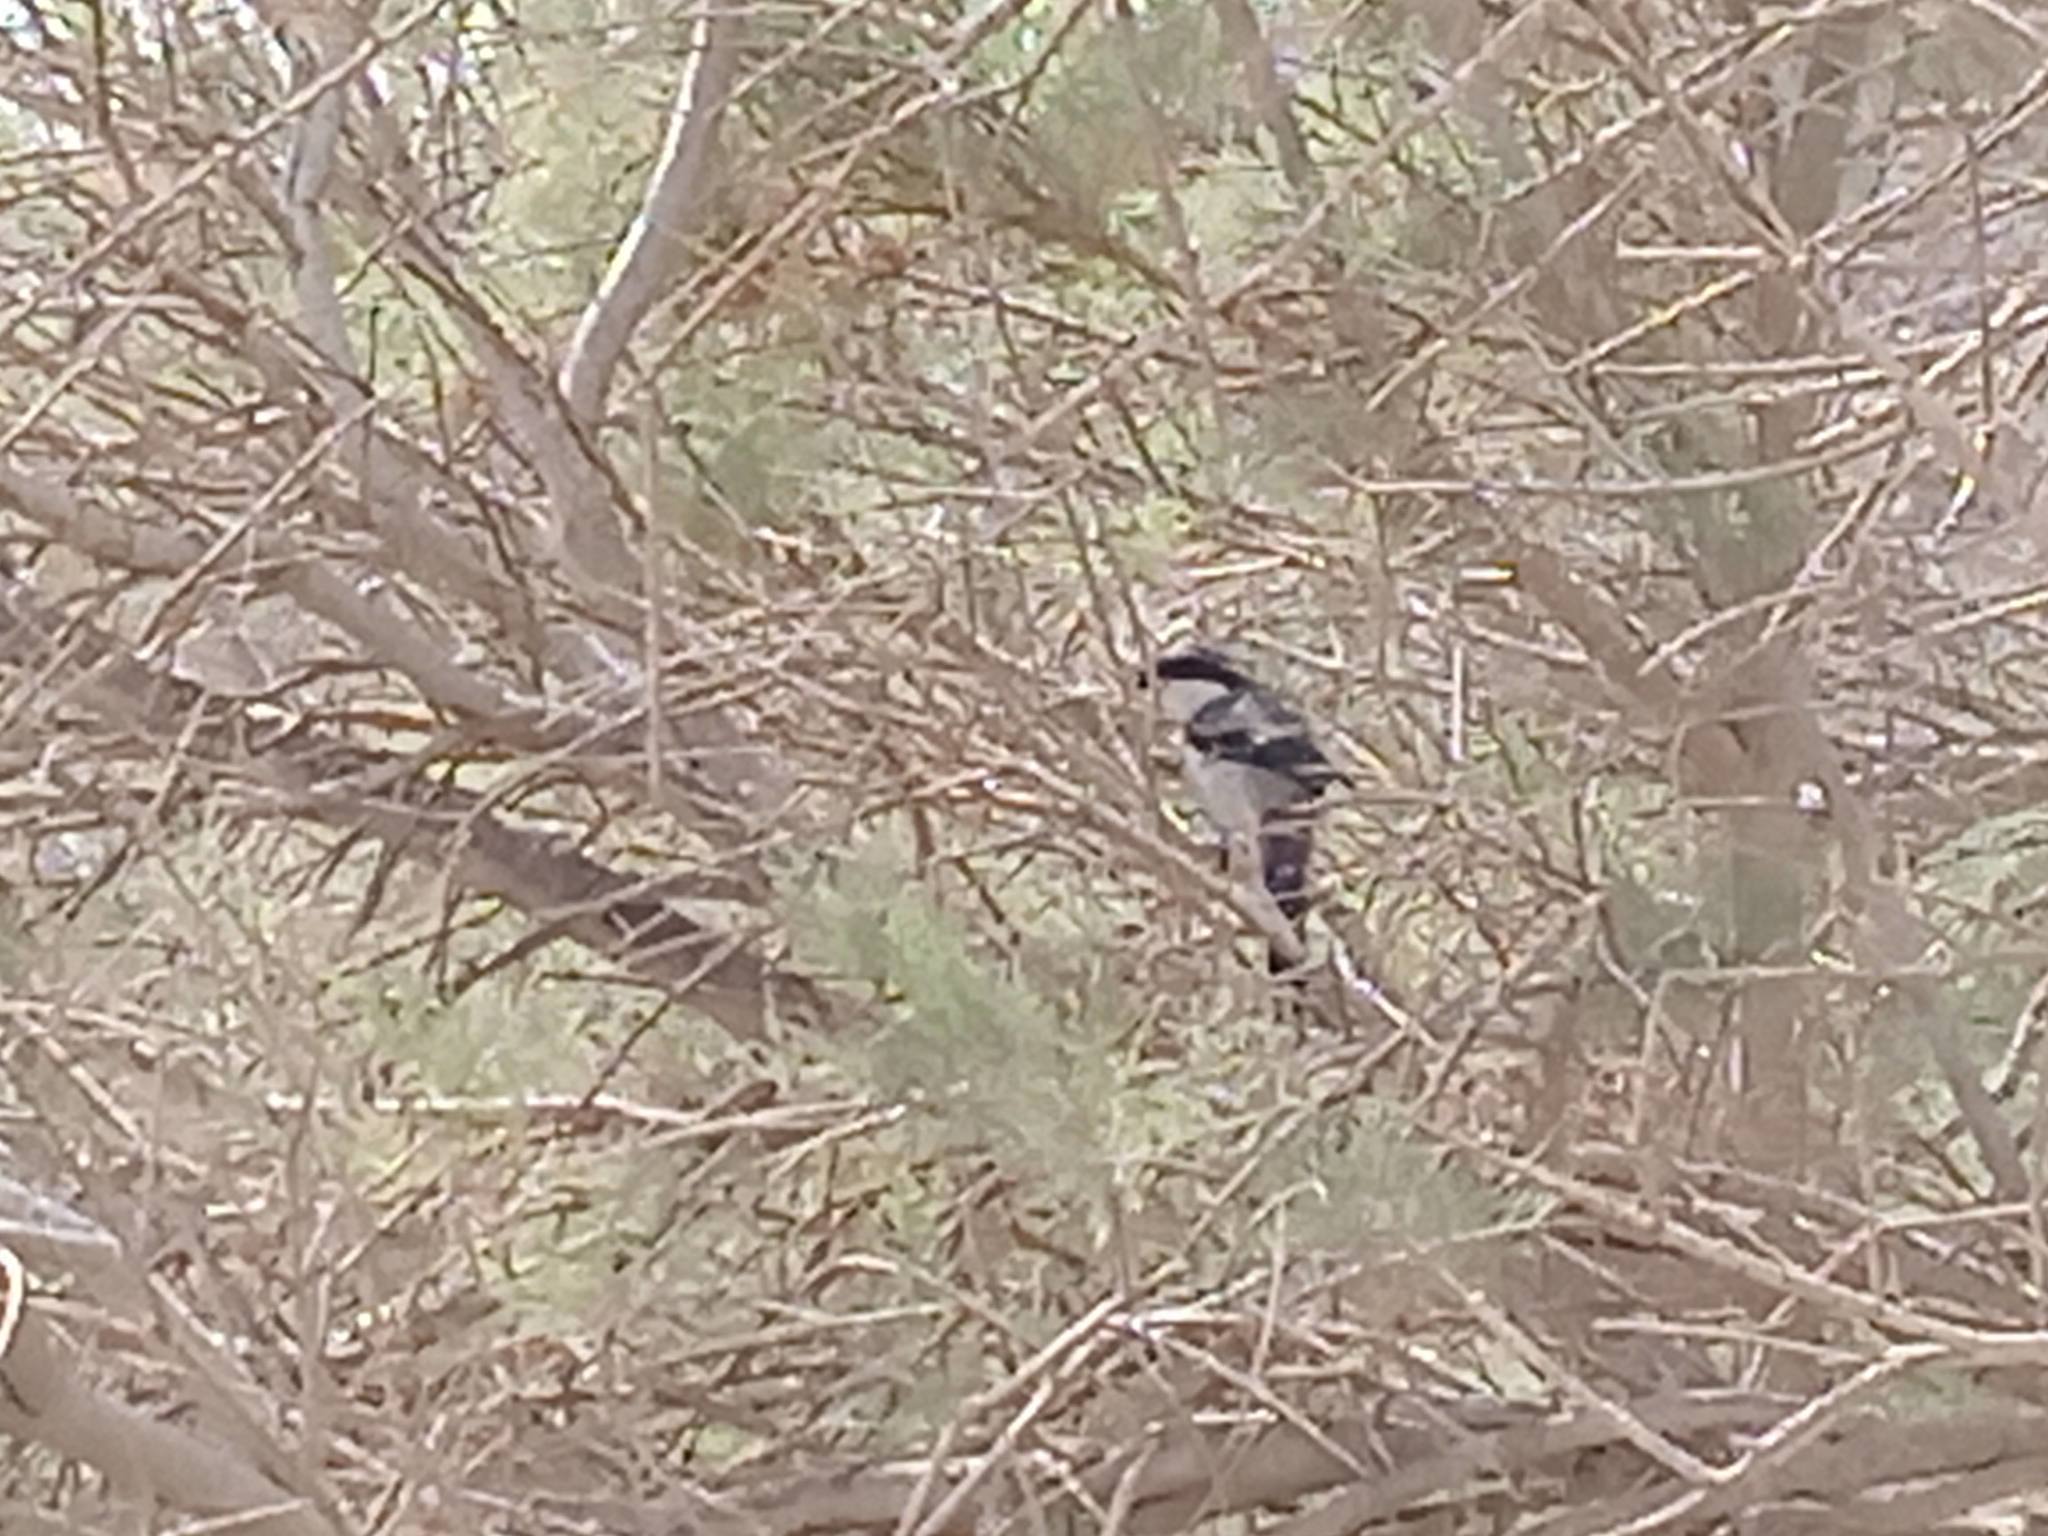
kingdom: Animalia
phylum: Chordata
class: Aves
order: Passeriformes
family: Laniidae
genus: Lanius
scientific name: Lanius excubitor
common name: Great grey shrike
